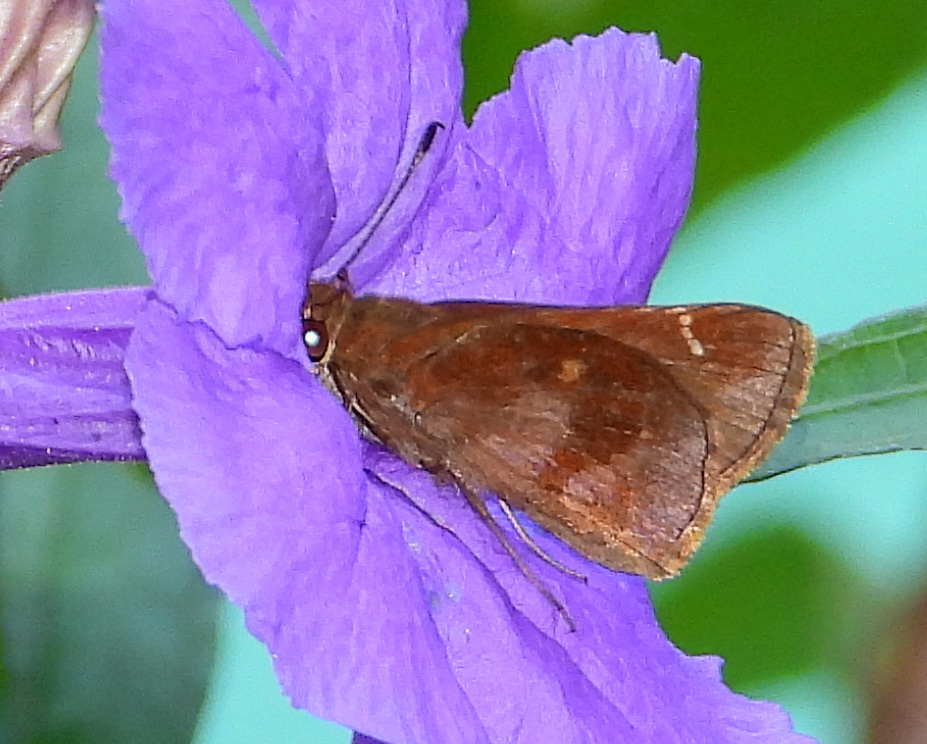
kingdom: Animalia
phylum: Arthropoda
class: Insecta
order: Lepidoptera
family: Hesperiidae
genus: Lerema
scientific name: Lerema accius
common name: Clouded skipper
